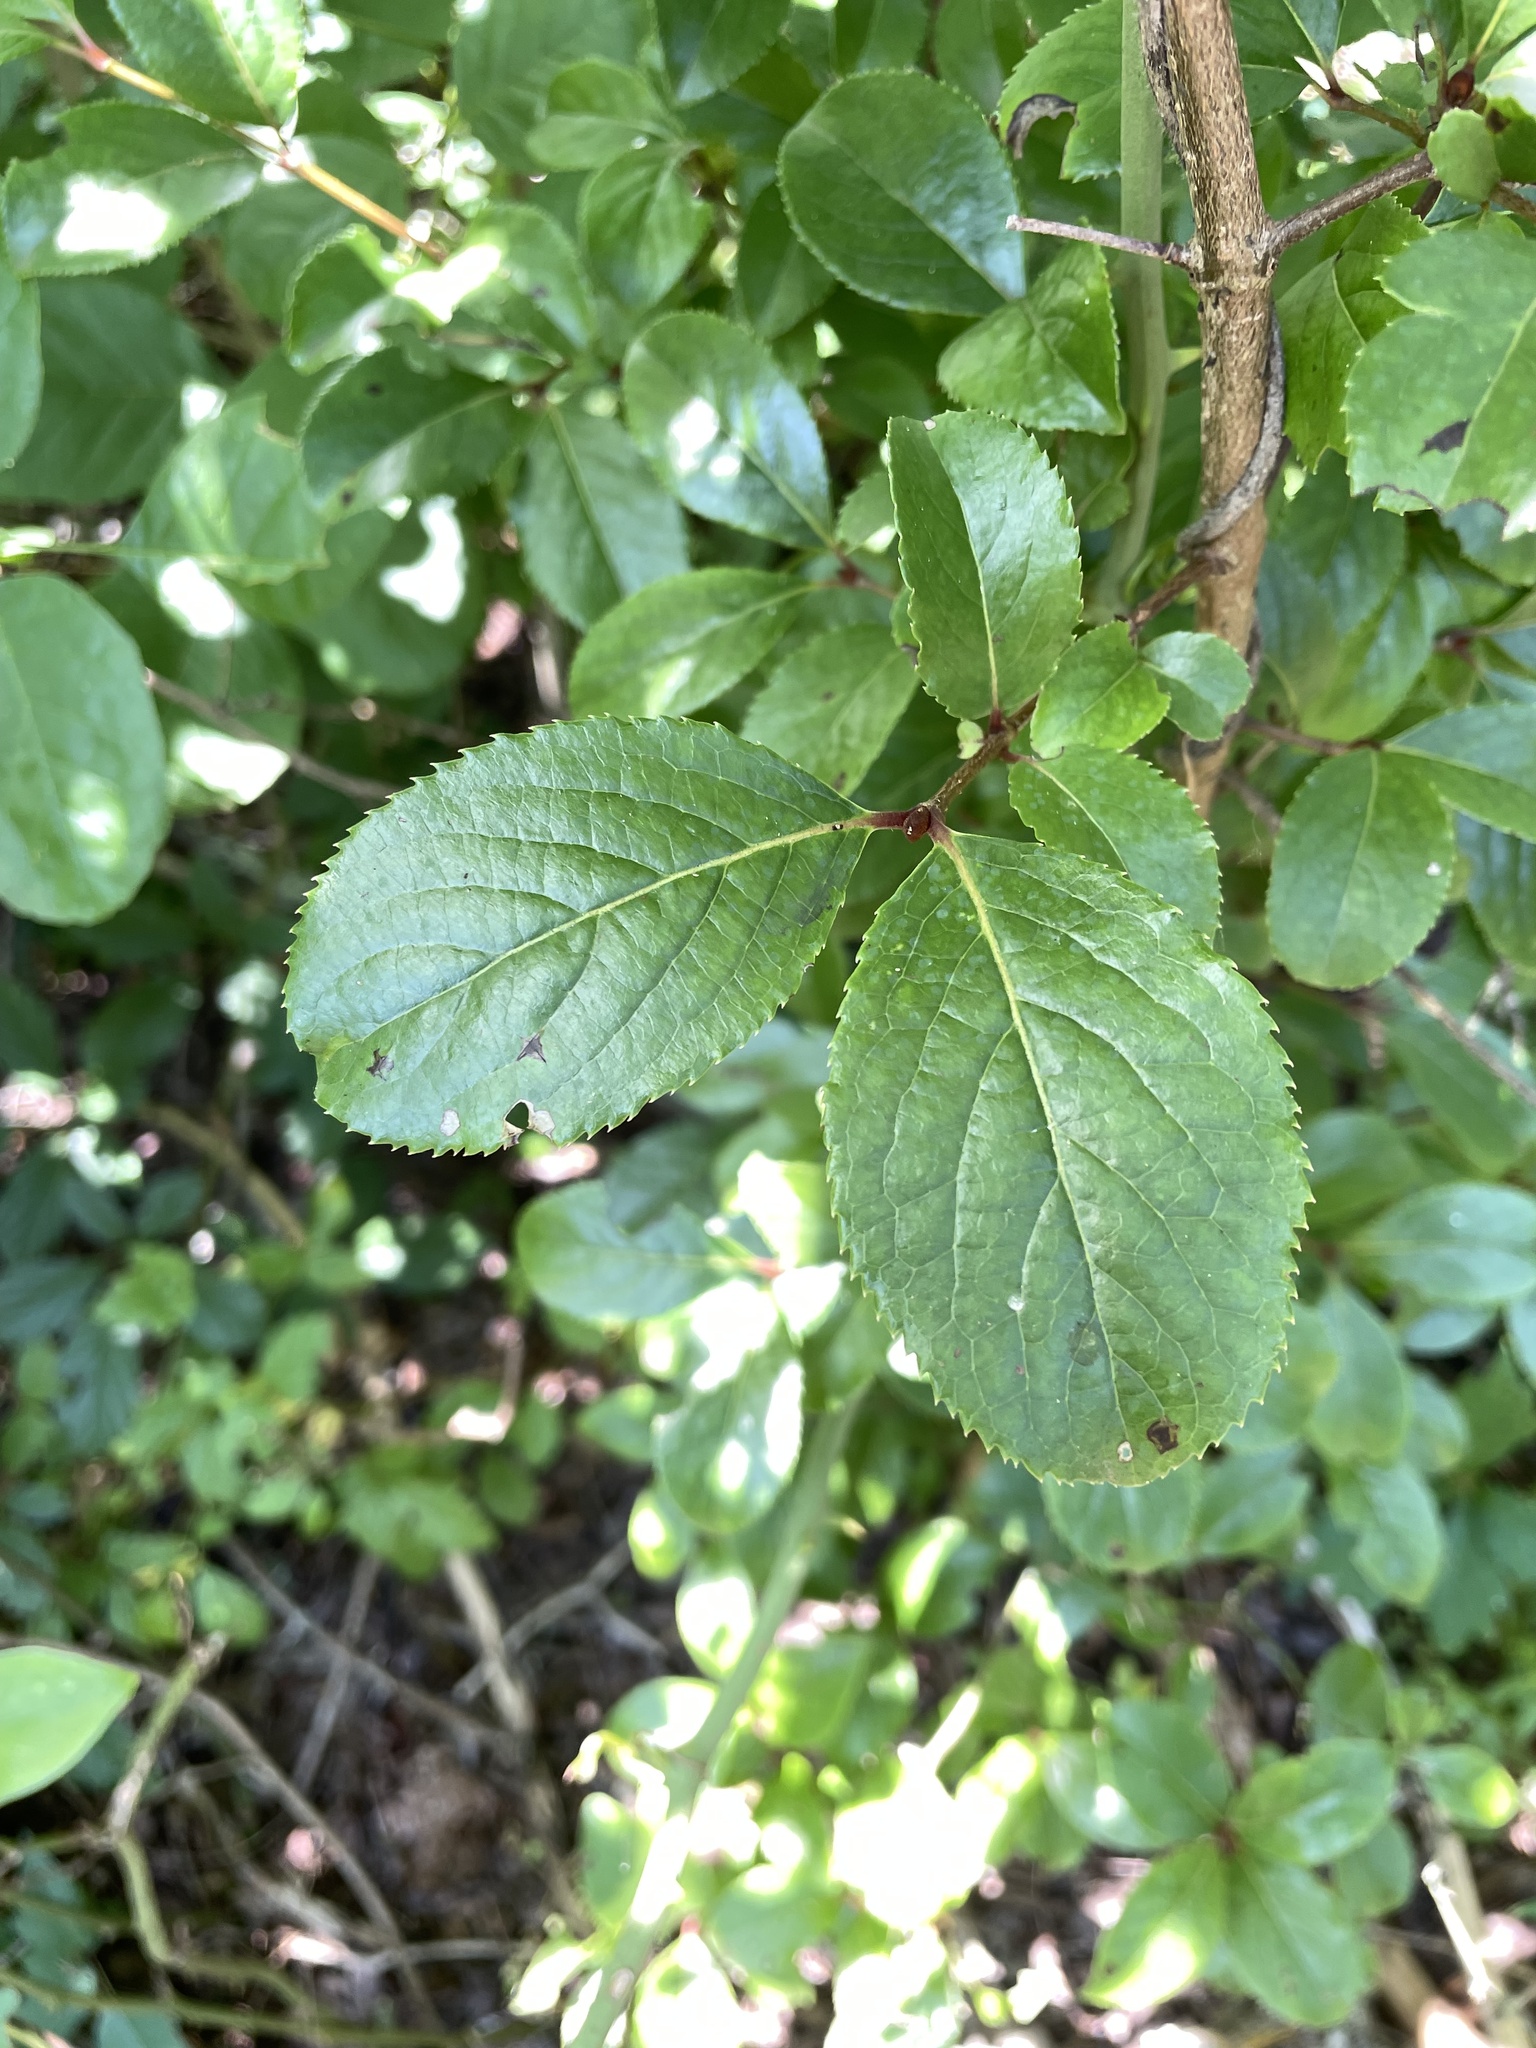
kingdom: Plantae
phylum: Tracheophyta
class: Magnoliopsida
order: Dipsacales
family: Viburnaceae
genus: Viburnum
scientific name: Viburnum rufidulum
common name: Blue haw
